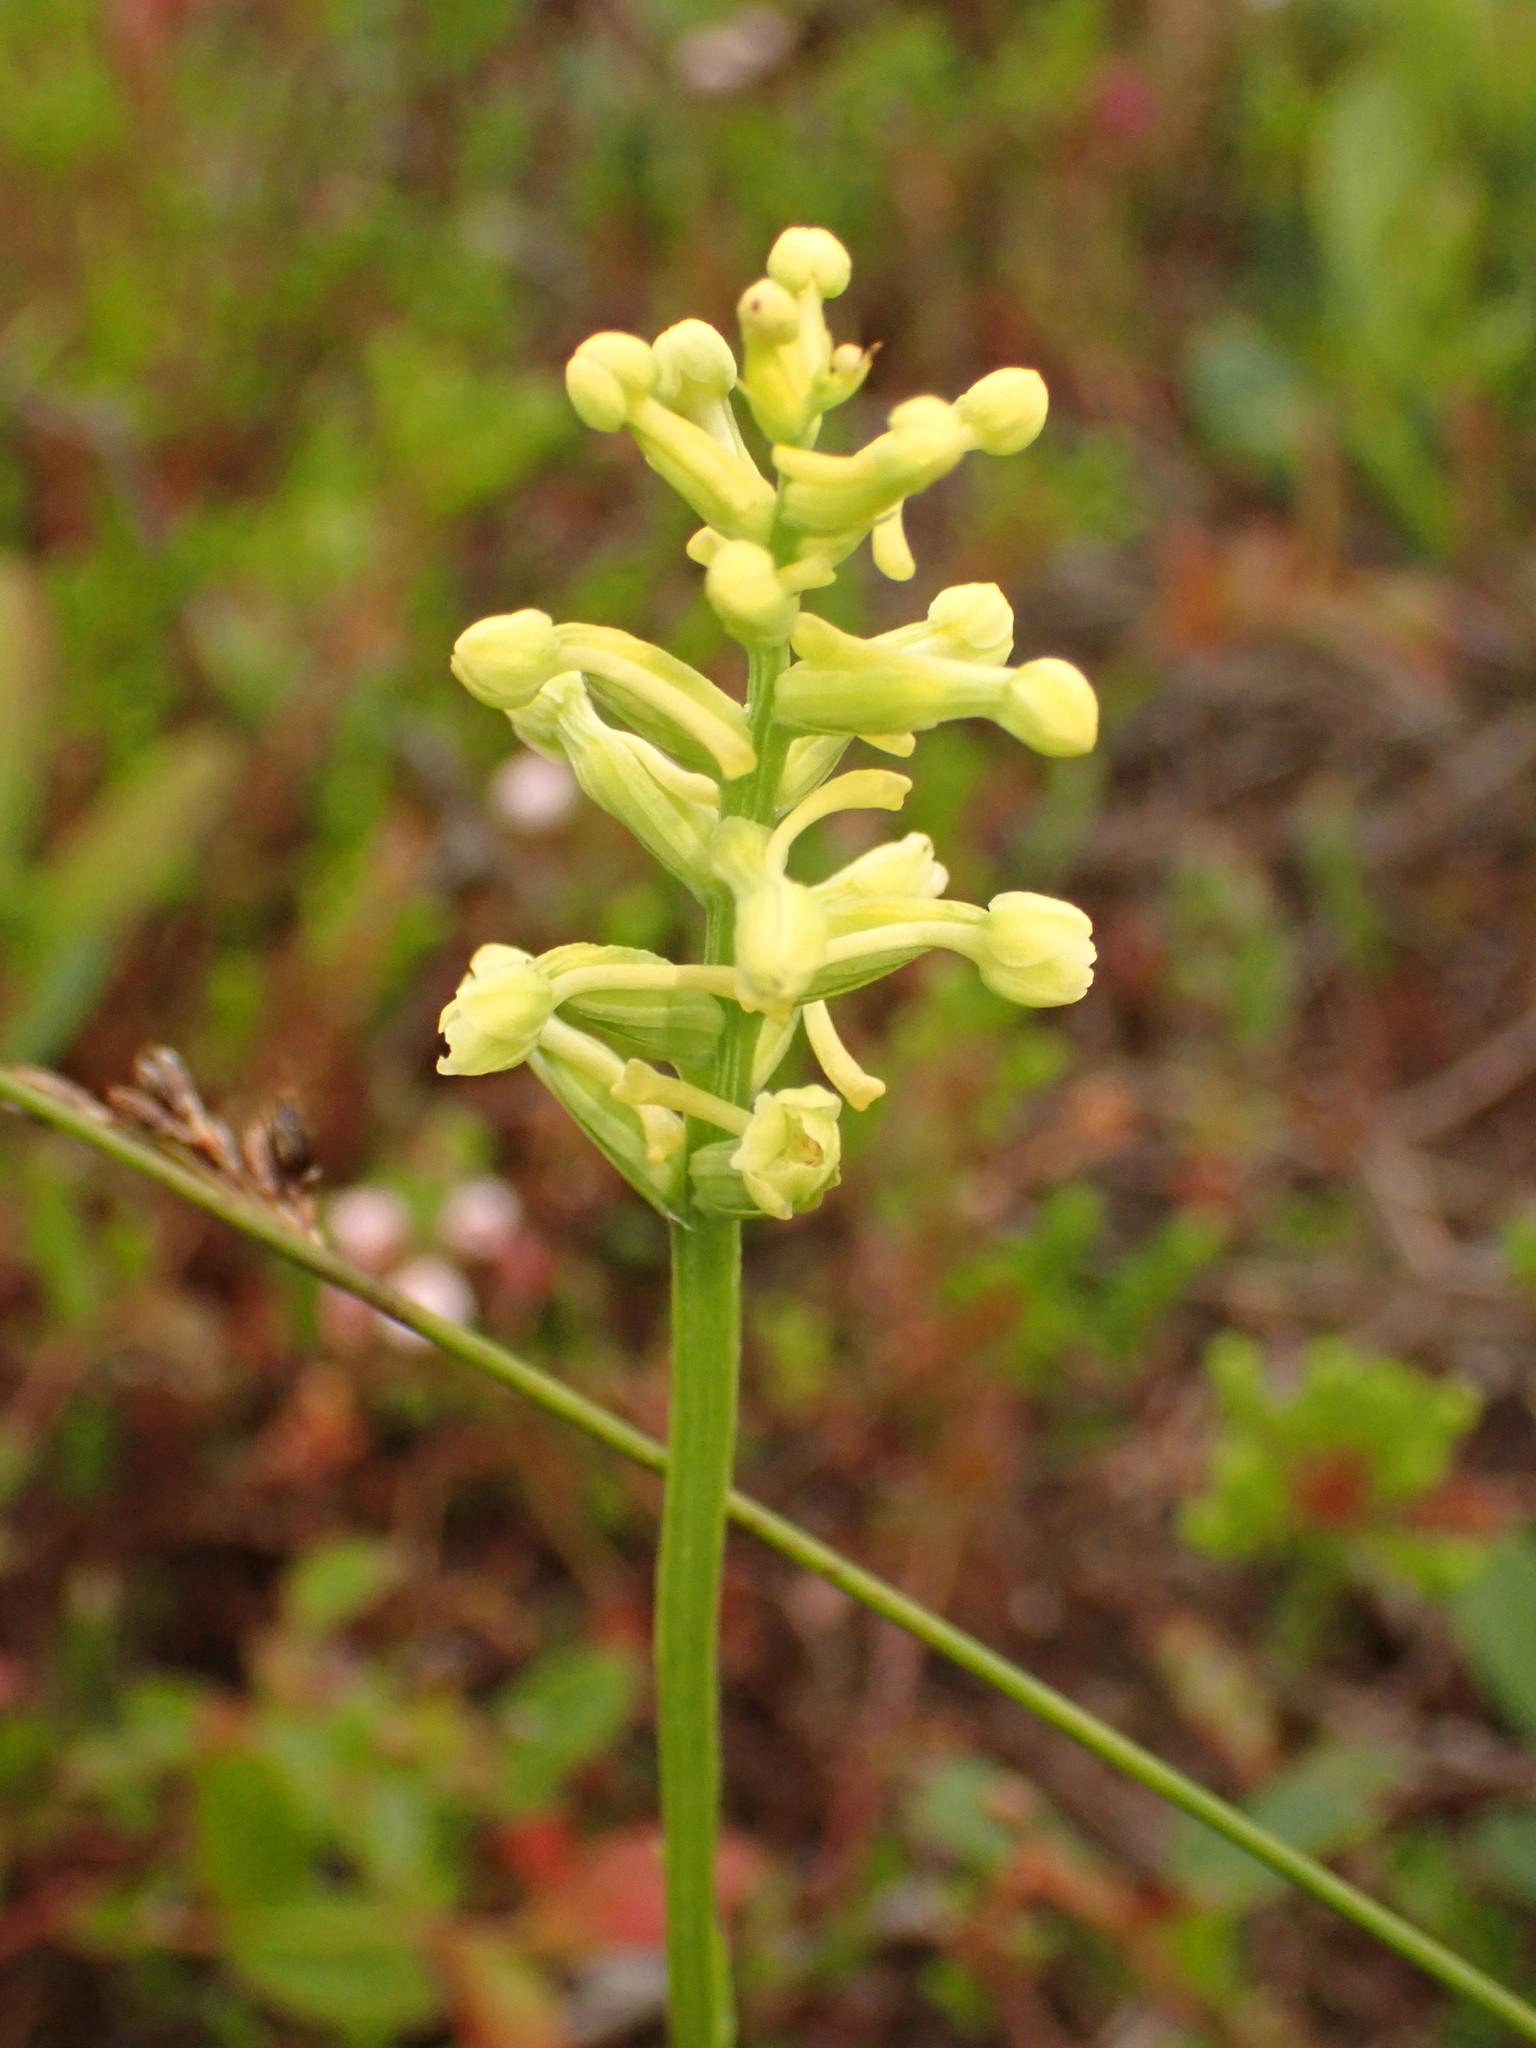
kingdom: Plantae
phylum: Tracheophyta
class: Liliopsida
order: Asparagales
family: Orchidaceae
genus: Platanthera
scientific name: Platanthera clavellata
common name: Club-spur orchid
